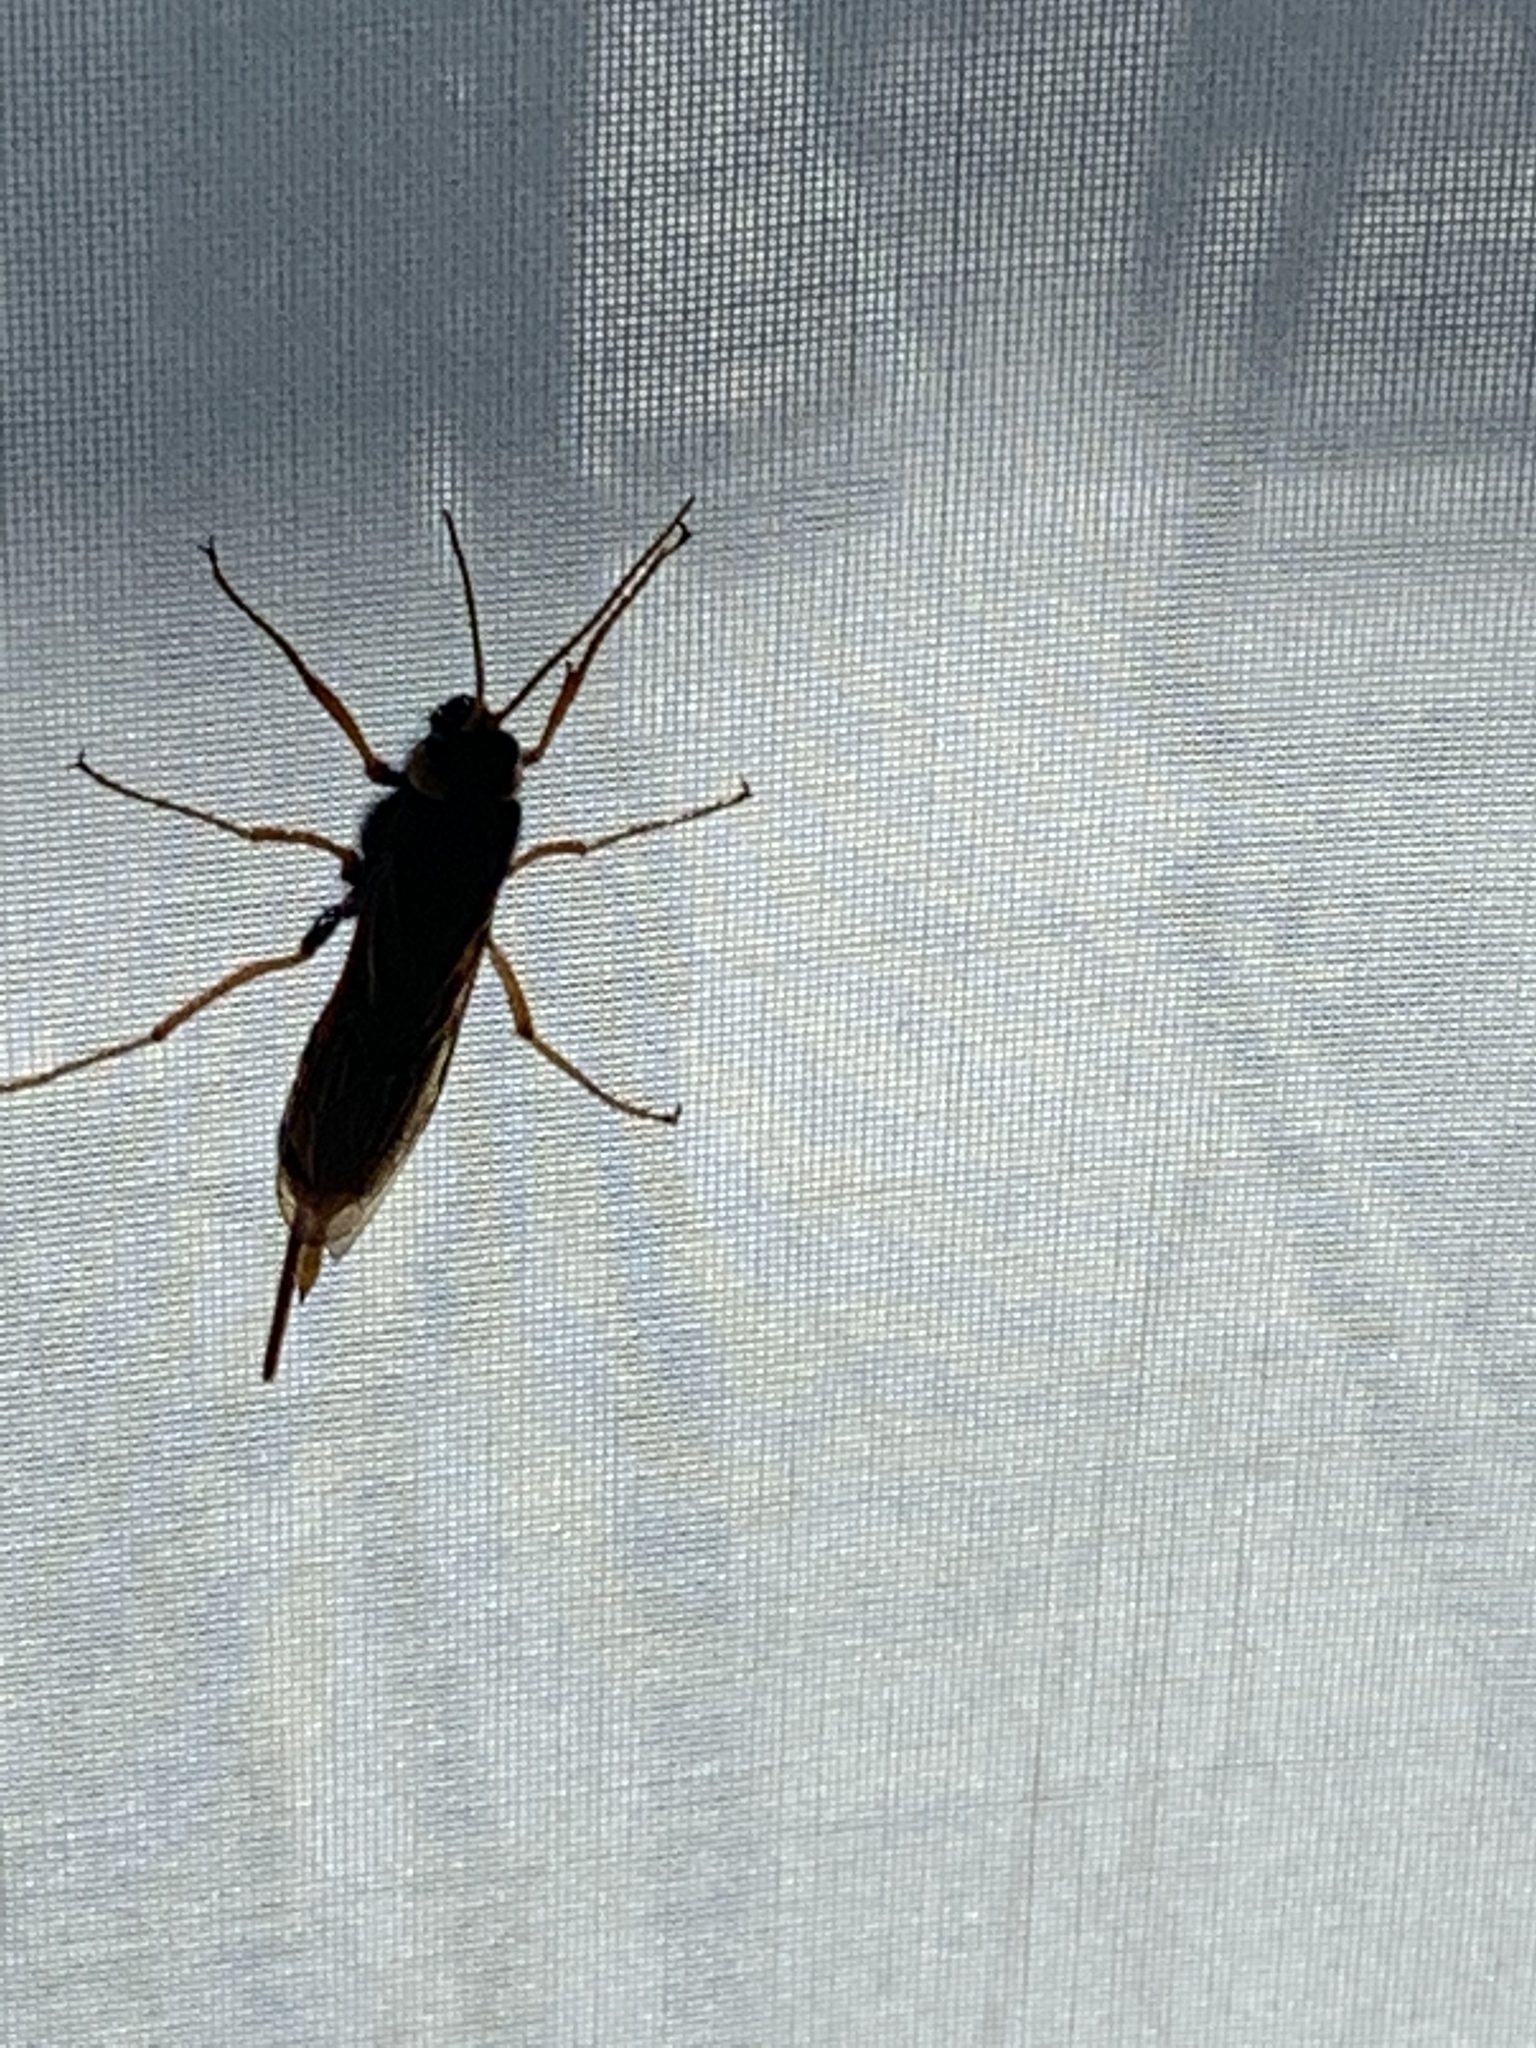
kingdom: Animalia
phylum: Arthropoda
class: Insecta
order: Hymenoptera
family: Siricidae
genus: Urocerus
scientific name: Urocerus gigas
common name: Giant woodwasp
